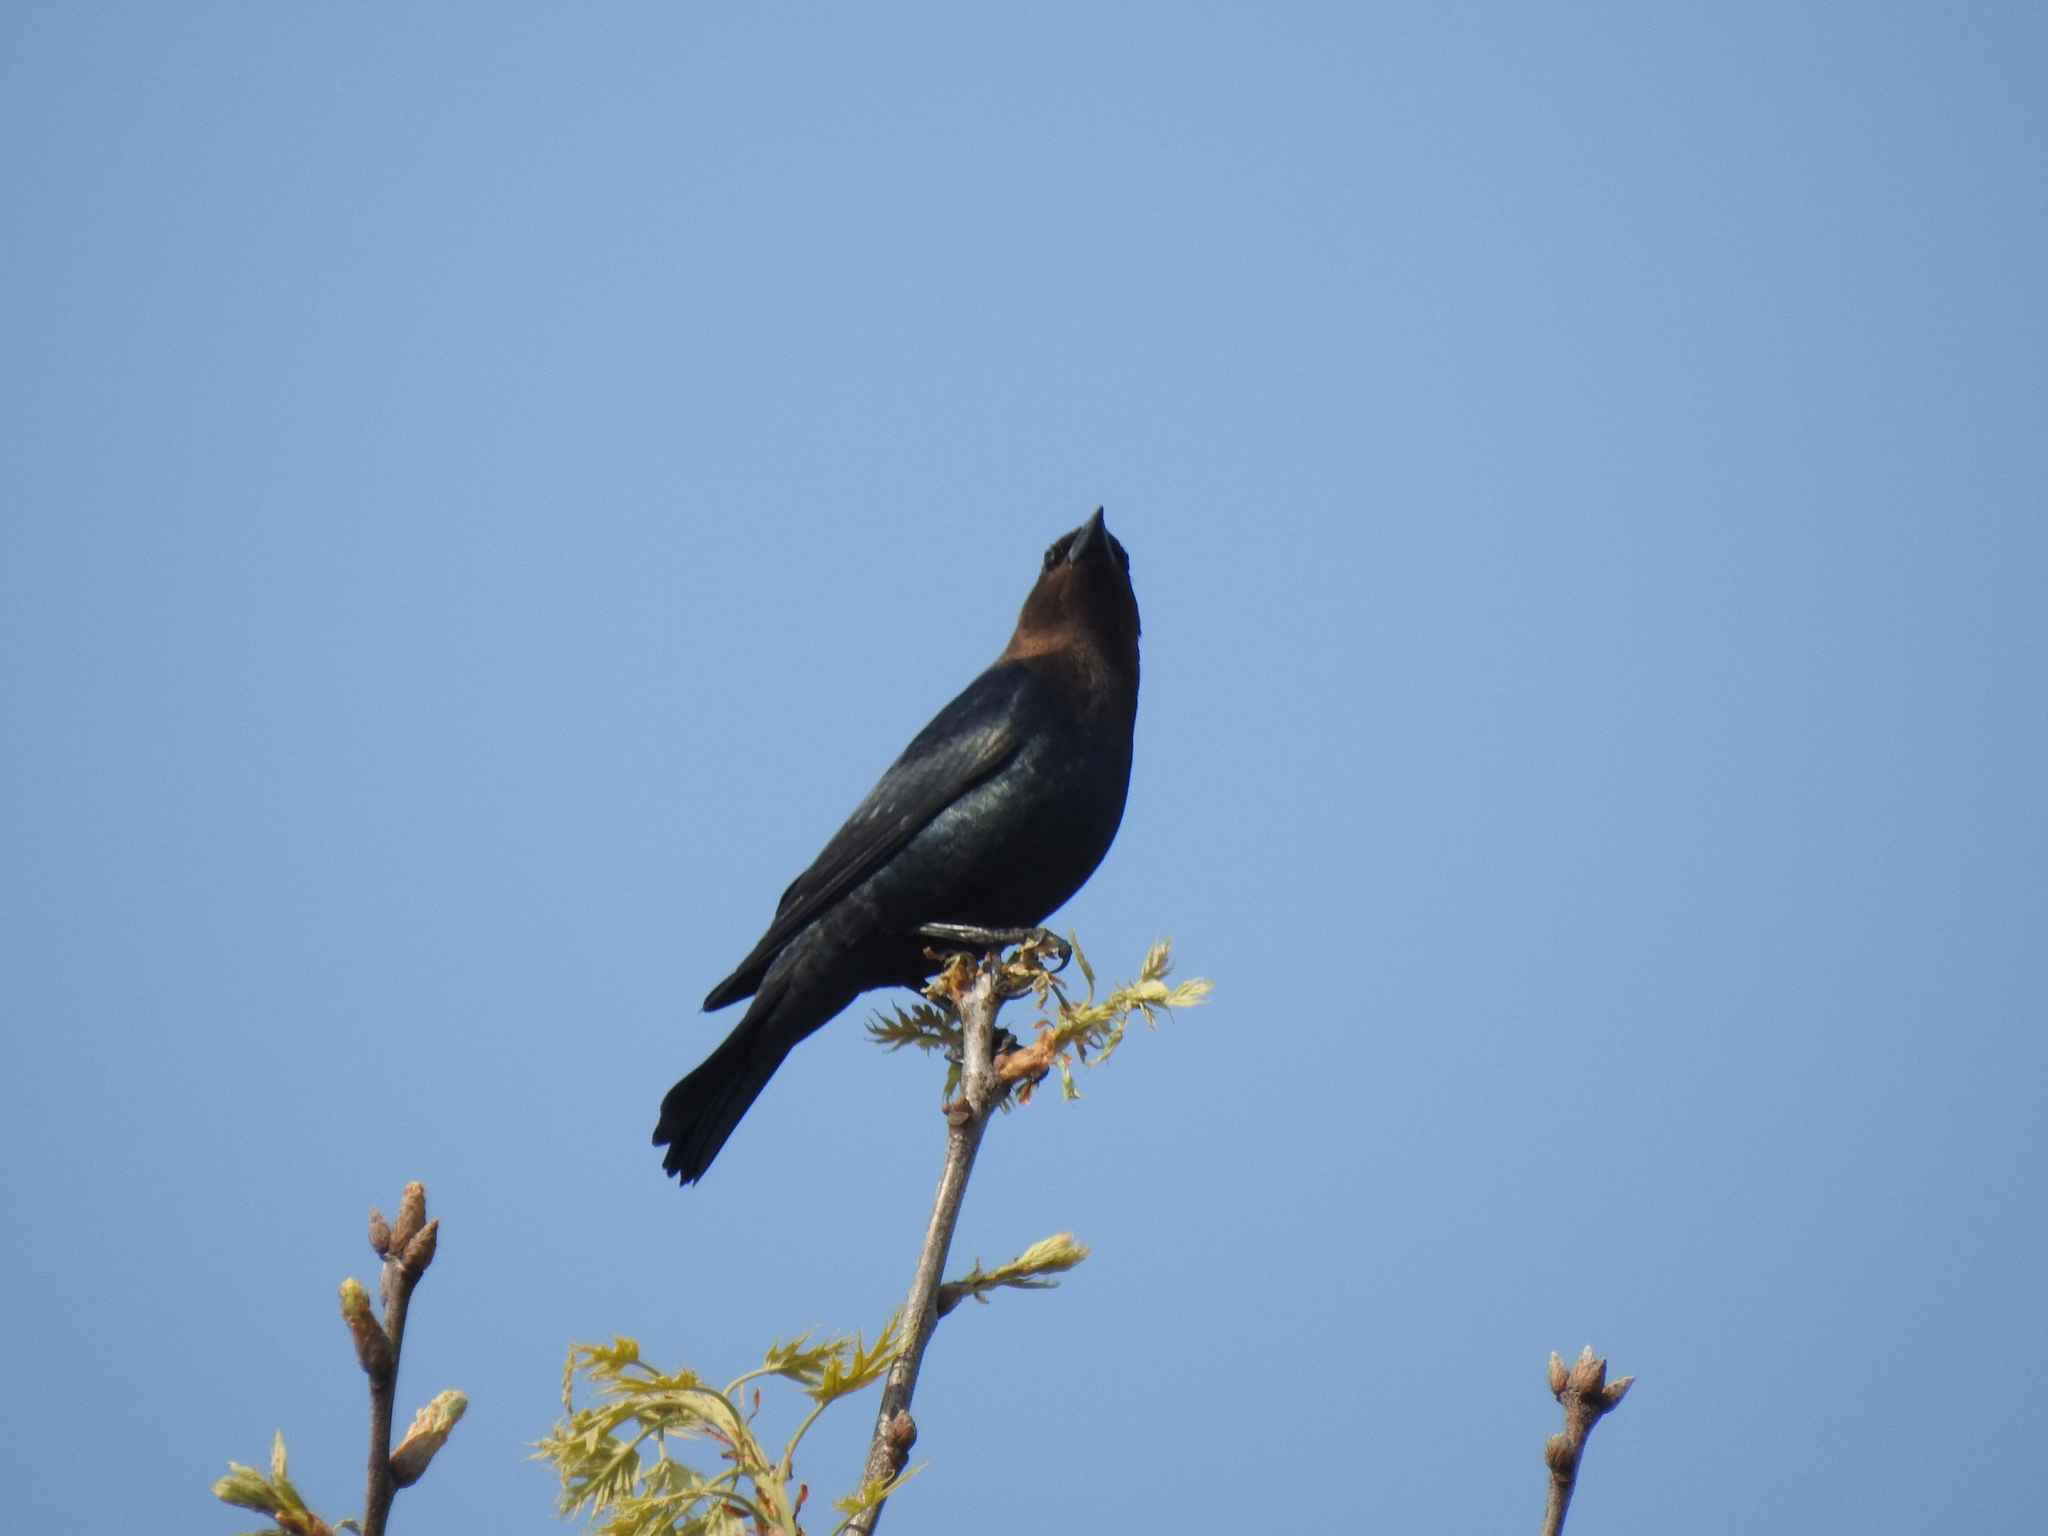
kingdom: Animalia
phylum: Chordata
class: Aves
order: Passeriformes
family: Icteridae
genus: Molothrus
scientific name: Molothrus ater
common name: Brown-headed cowbird
